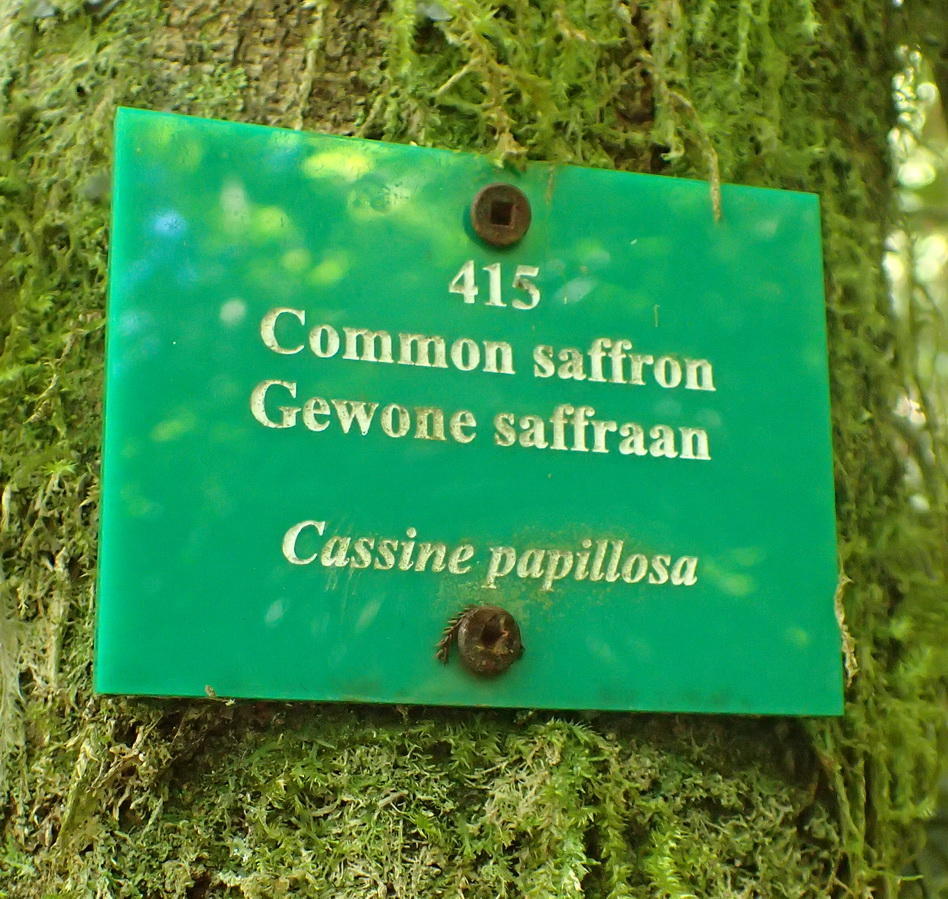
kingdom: Plantae
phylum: Tracheophyta
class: Magnoliopsida
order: Celastrales
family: Celastraceae
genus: Elaeodendron
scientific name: Elaeodendron croceum
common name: Saffron
